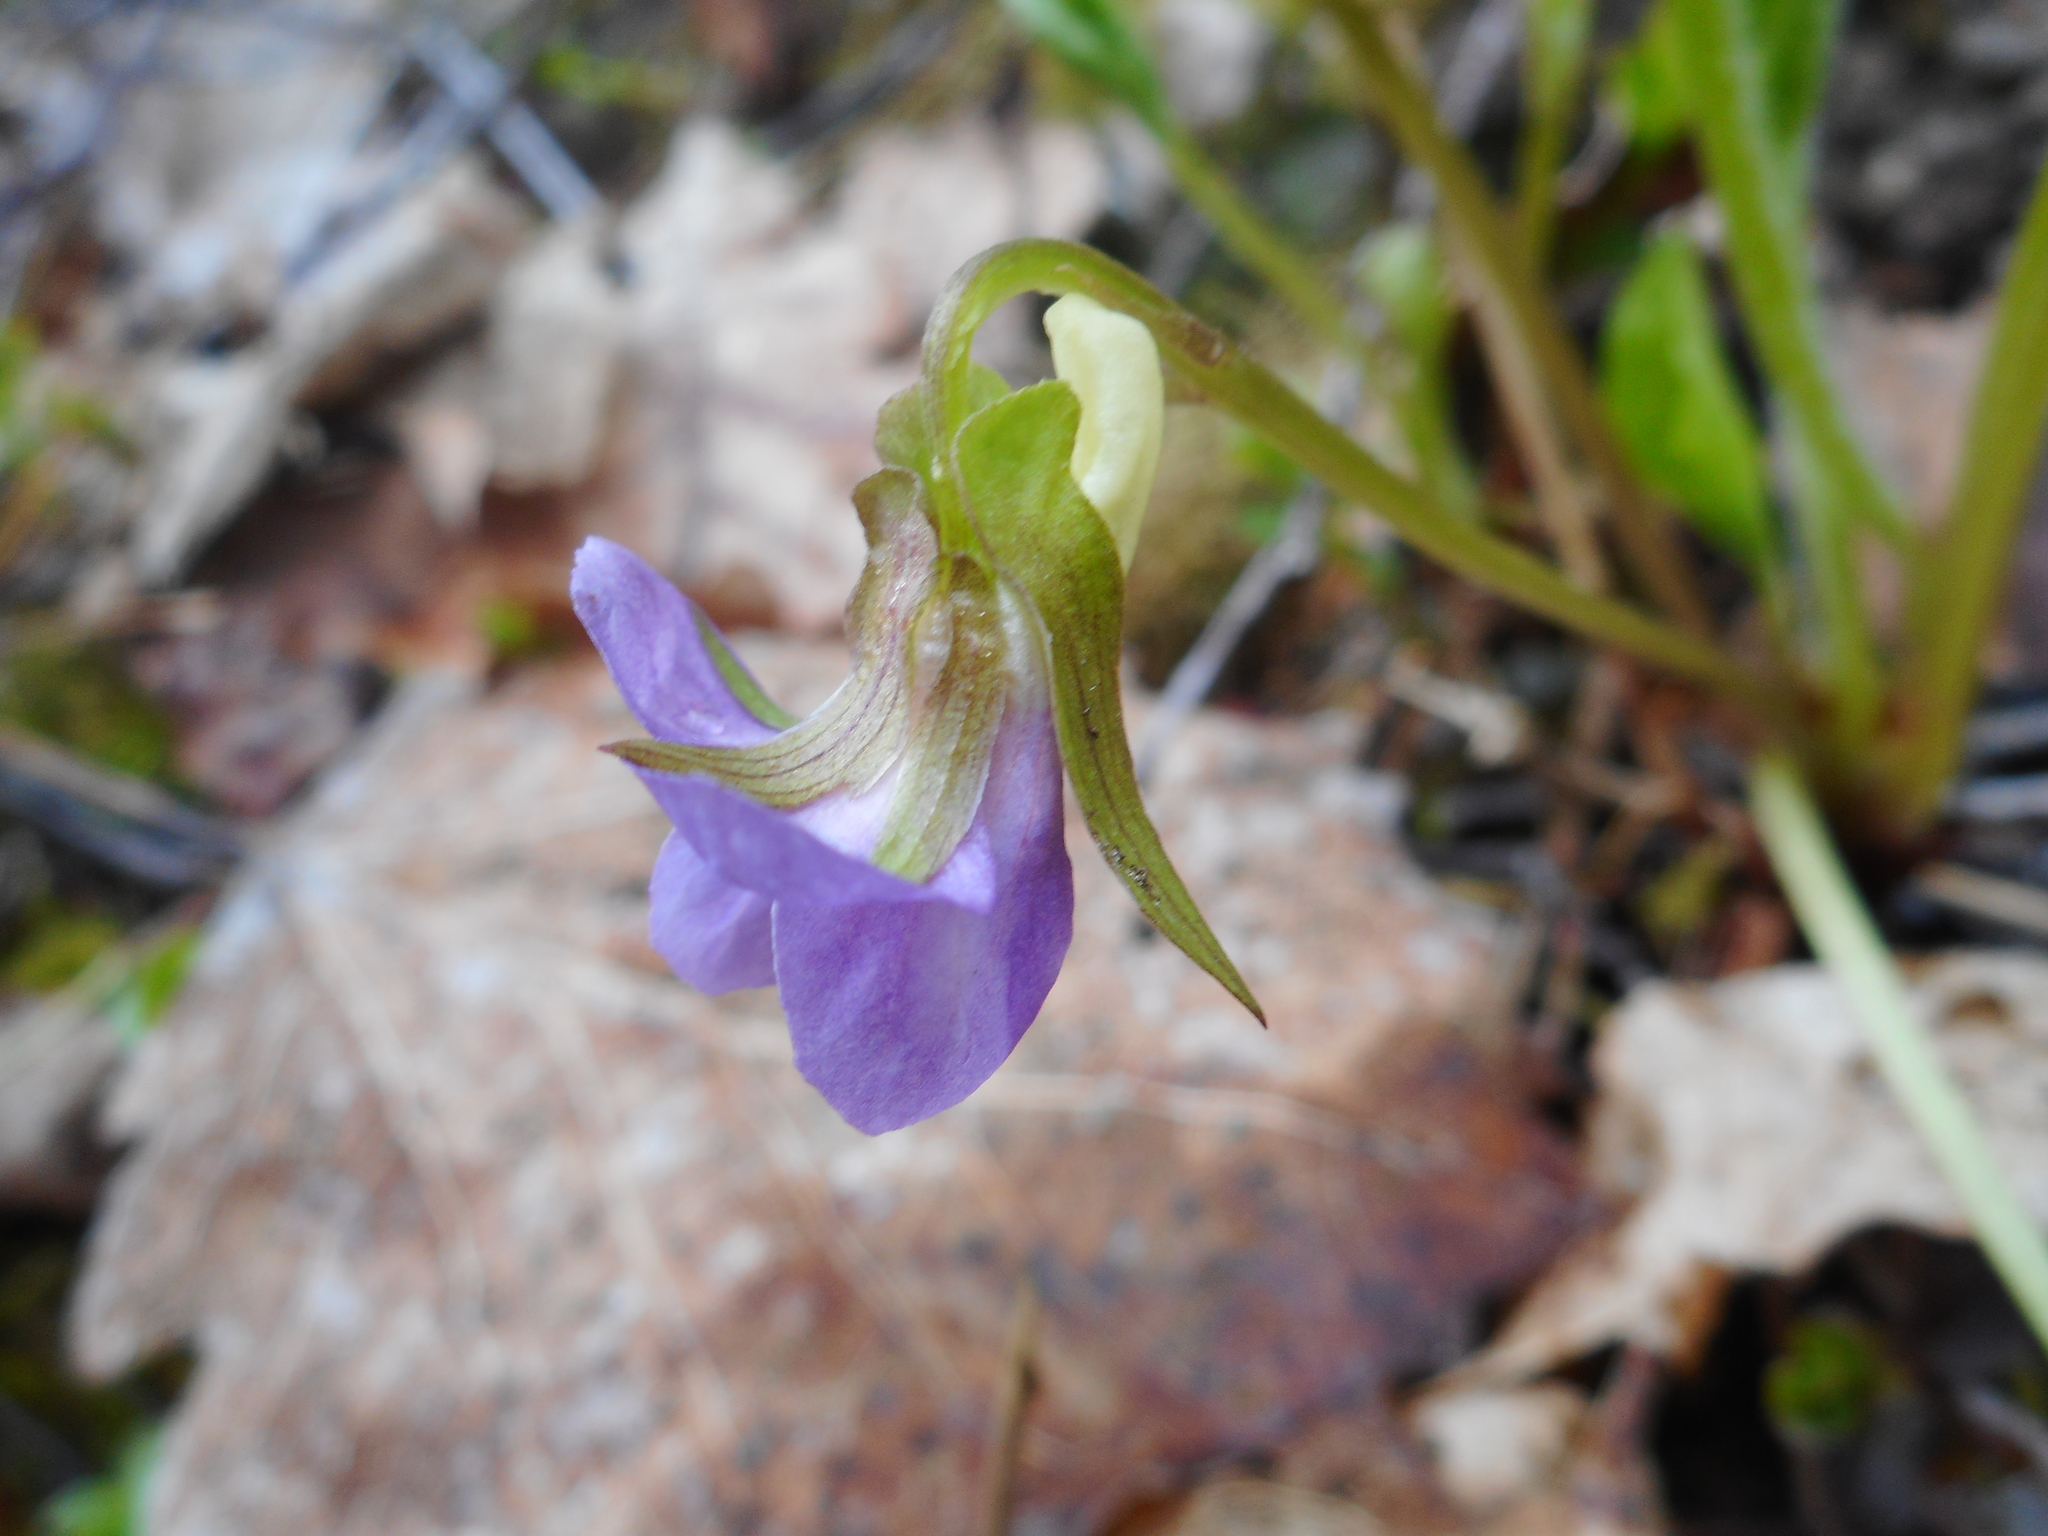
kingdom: Plantae
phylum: Tracheophyta
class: Magnoliopsida
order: Malpighiales
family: Violaceae
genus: Viola
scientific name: Viola mirabilis
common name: Wonder violet
